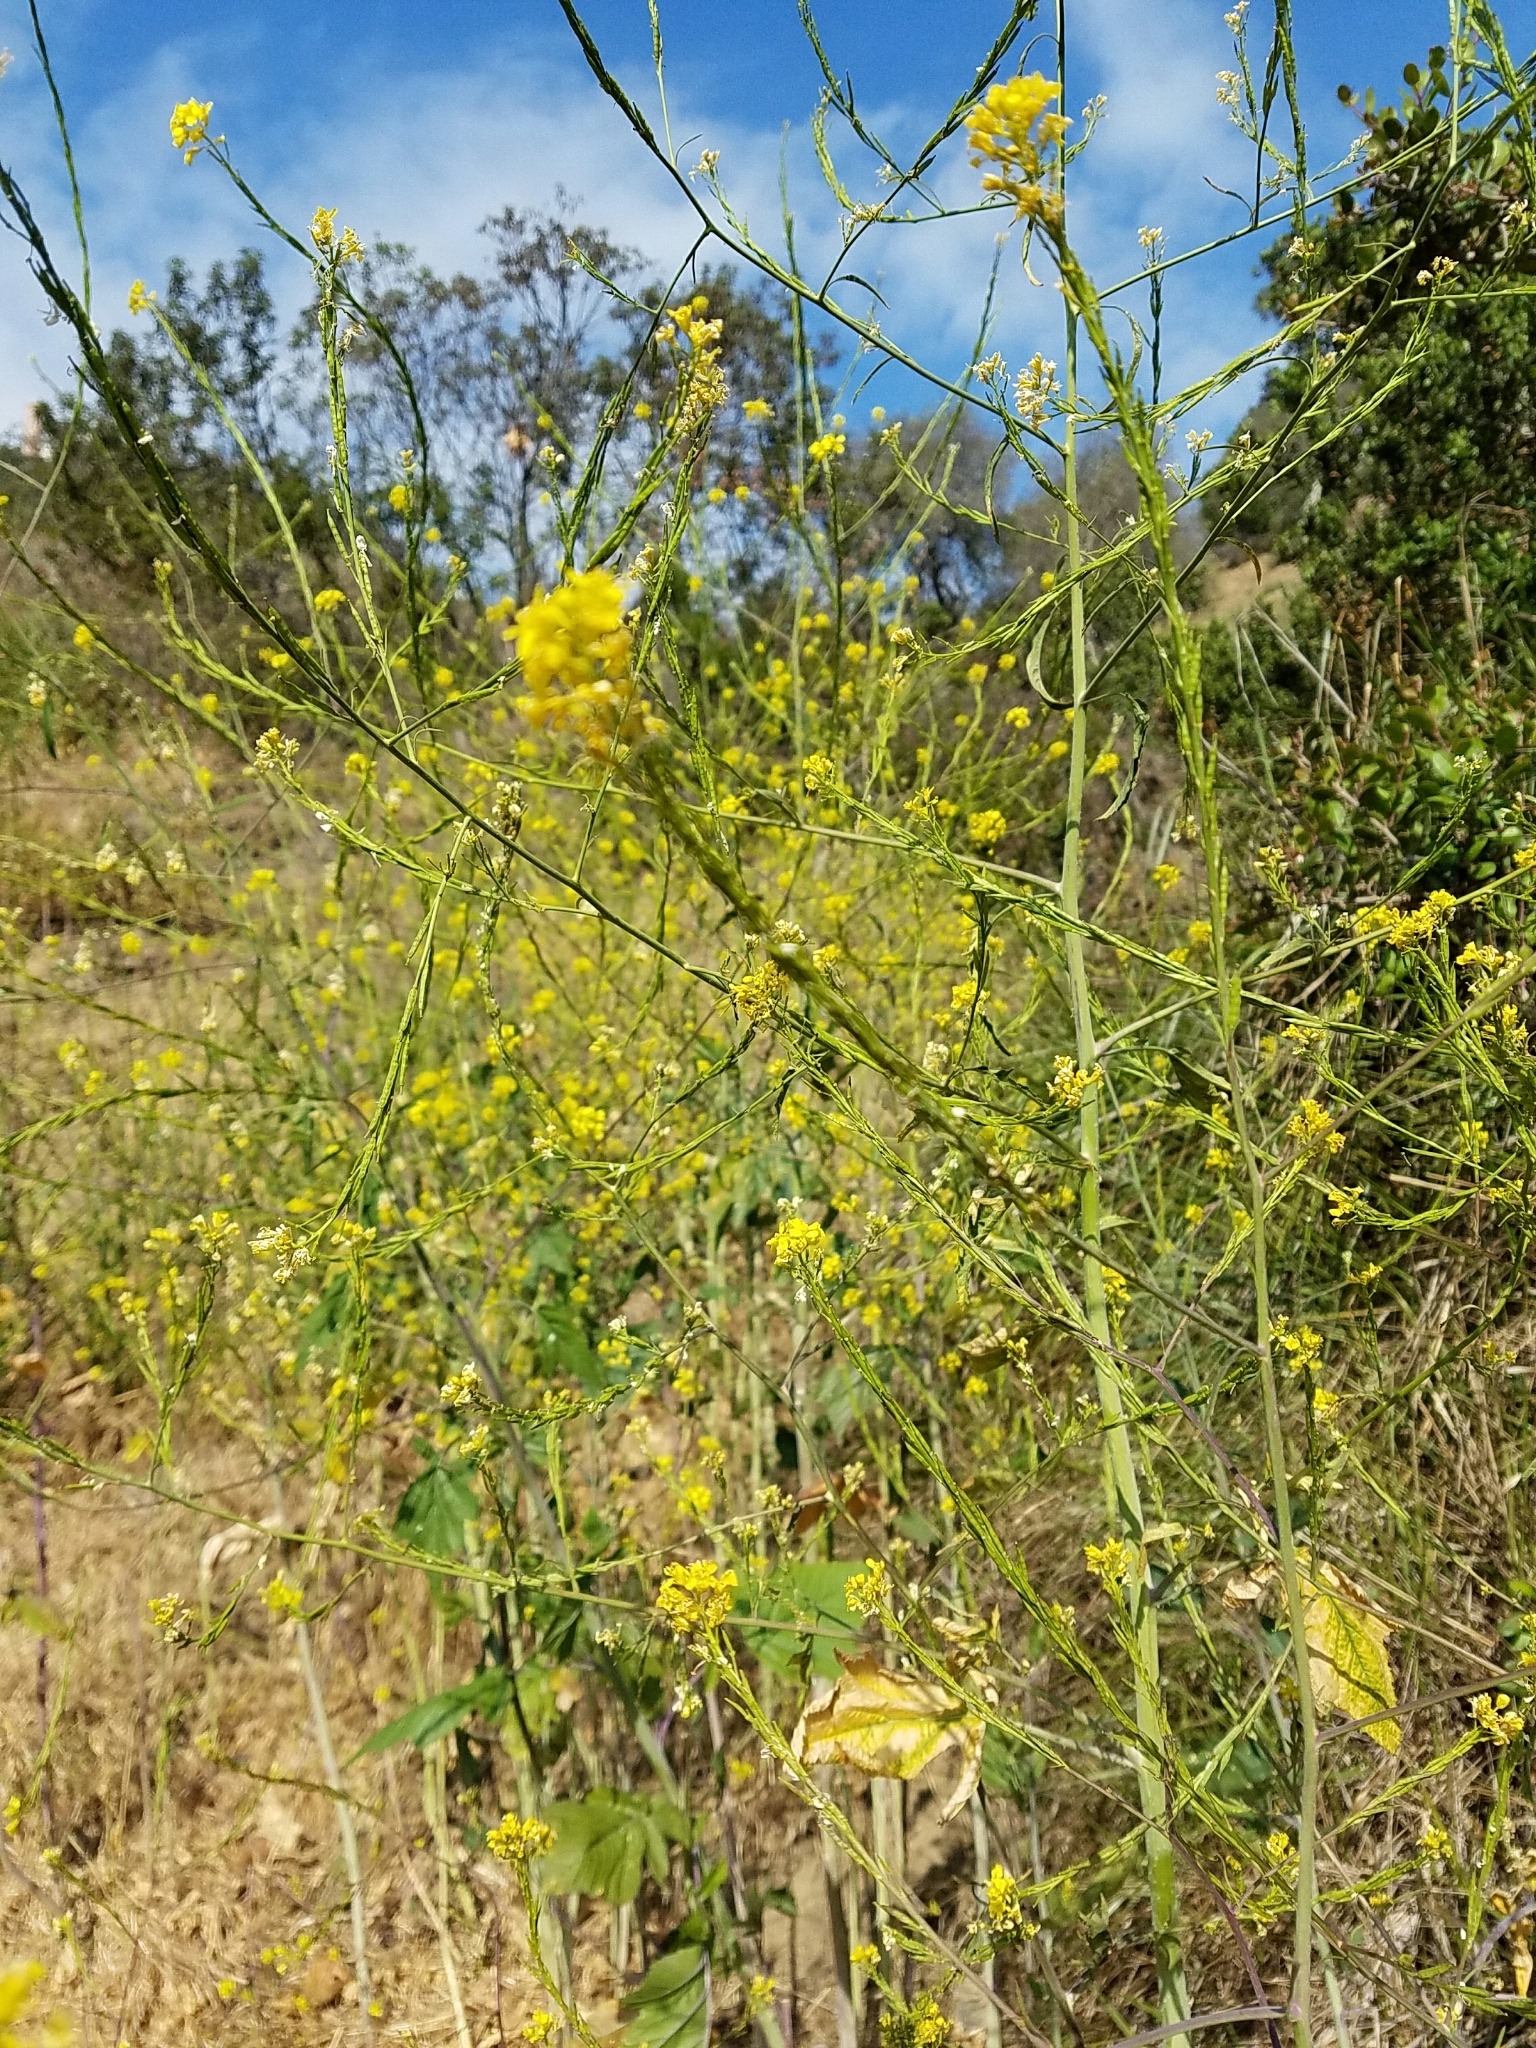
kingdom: Plantae
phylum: Tracheophyta
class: Magnoliopsida
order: Brassicales
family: Brassicaceae
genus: Brassica
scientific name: Brassica nigra
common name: Black mustard
